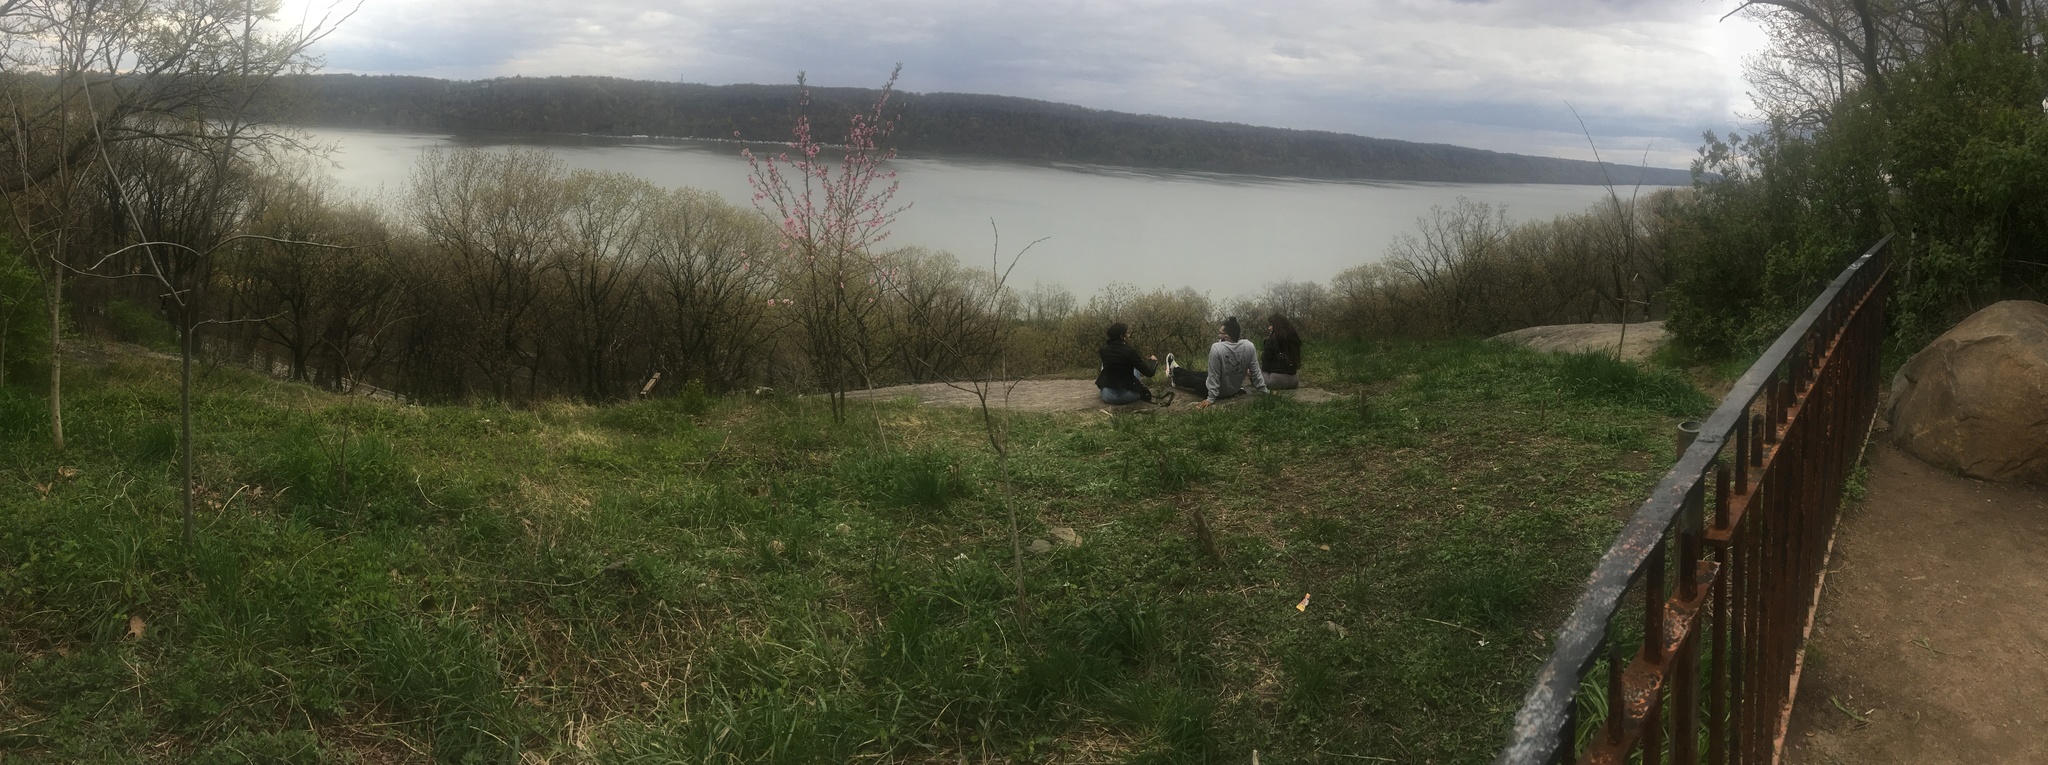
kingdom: Plantae
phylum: Tracheophyta
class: Magnoliopsida
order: Rosales
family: Rosaceae
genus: Prunus
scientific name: Prunus persica
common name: Peach
